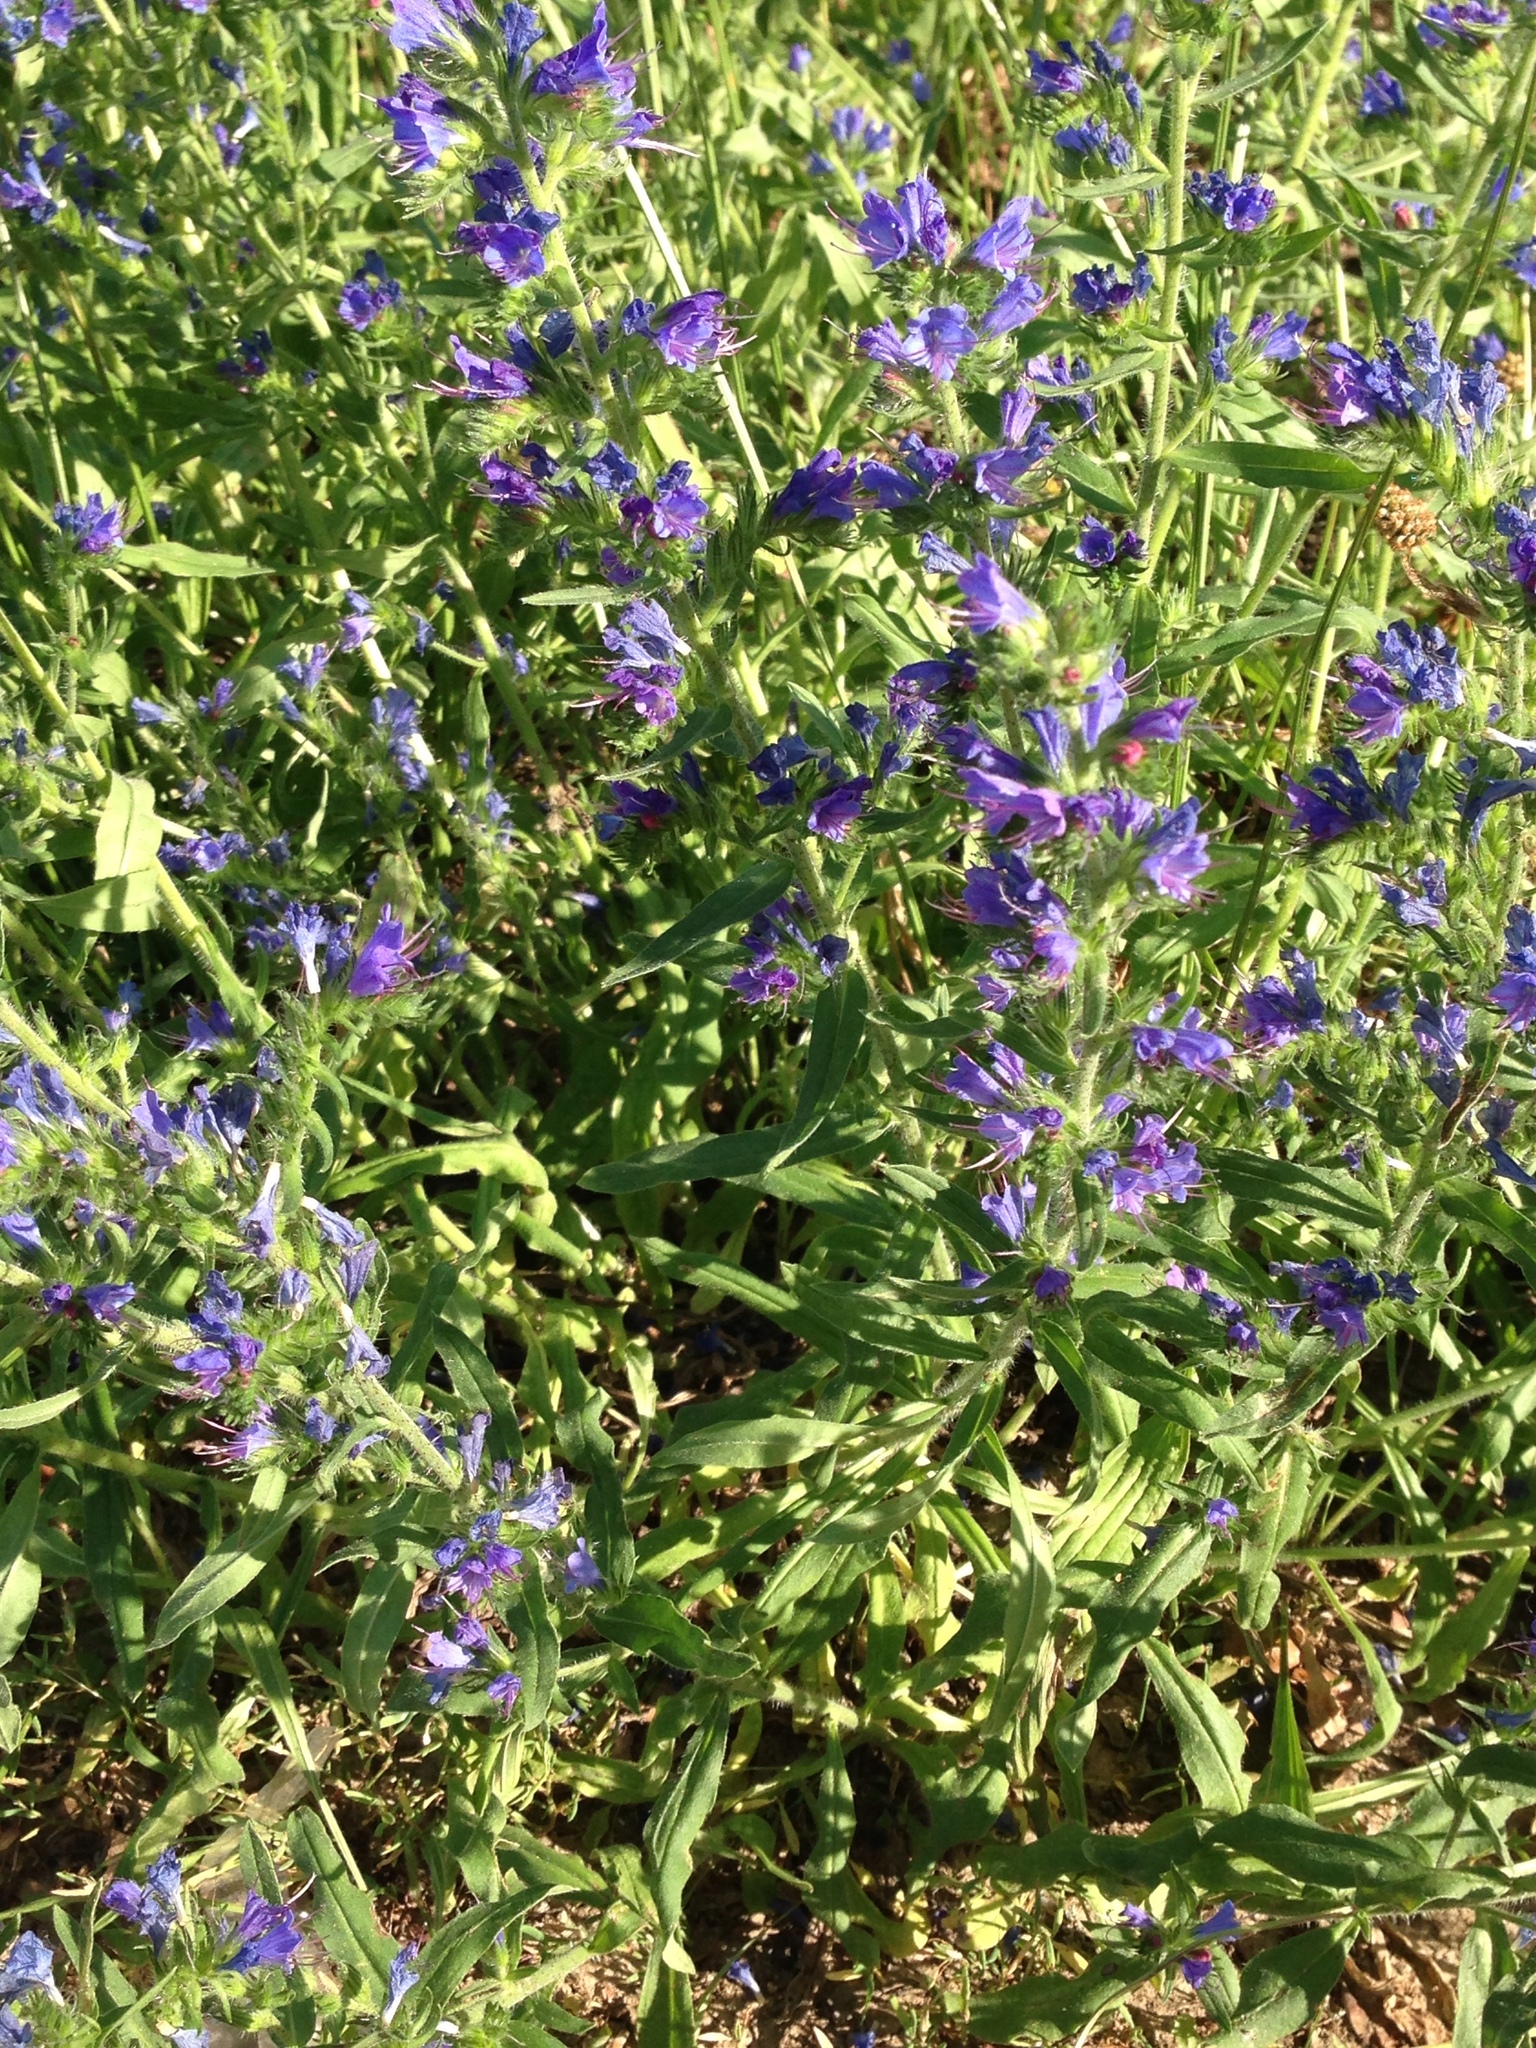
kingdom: Plantae
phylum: Tracheophyta
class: Magnoliopsida
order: Boraginales
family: Boraginaceae
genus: Echium
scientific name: Echium vulgare
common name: Common viper's bugloss
